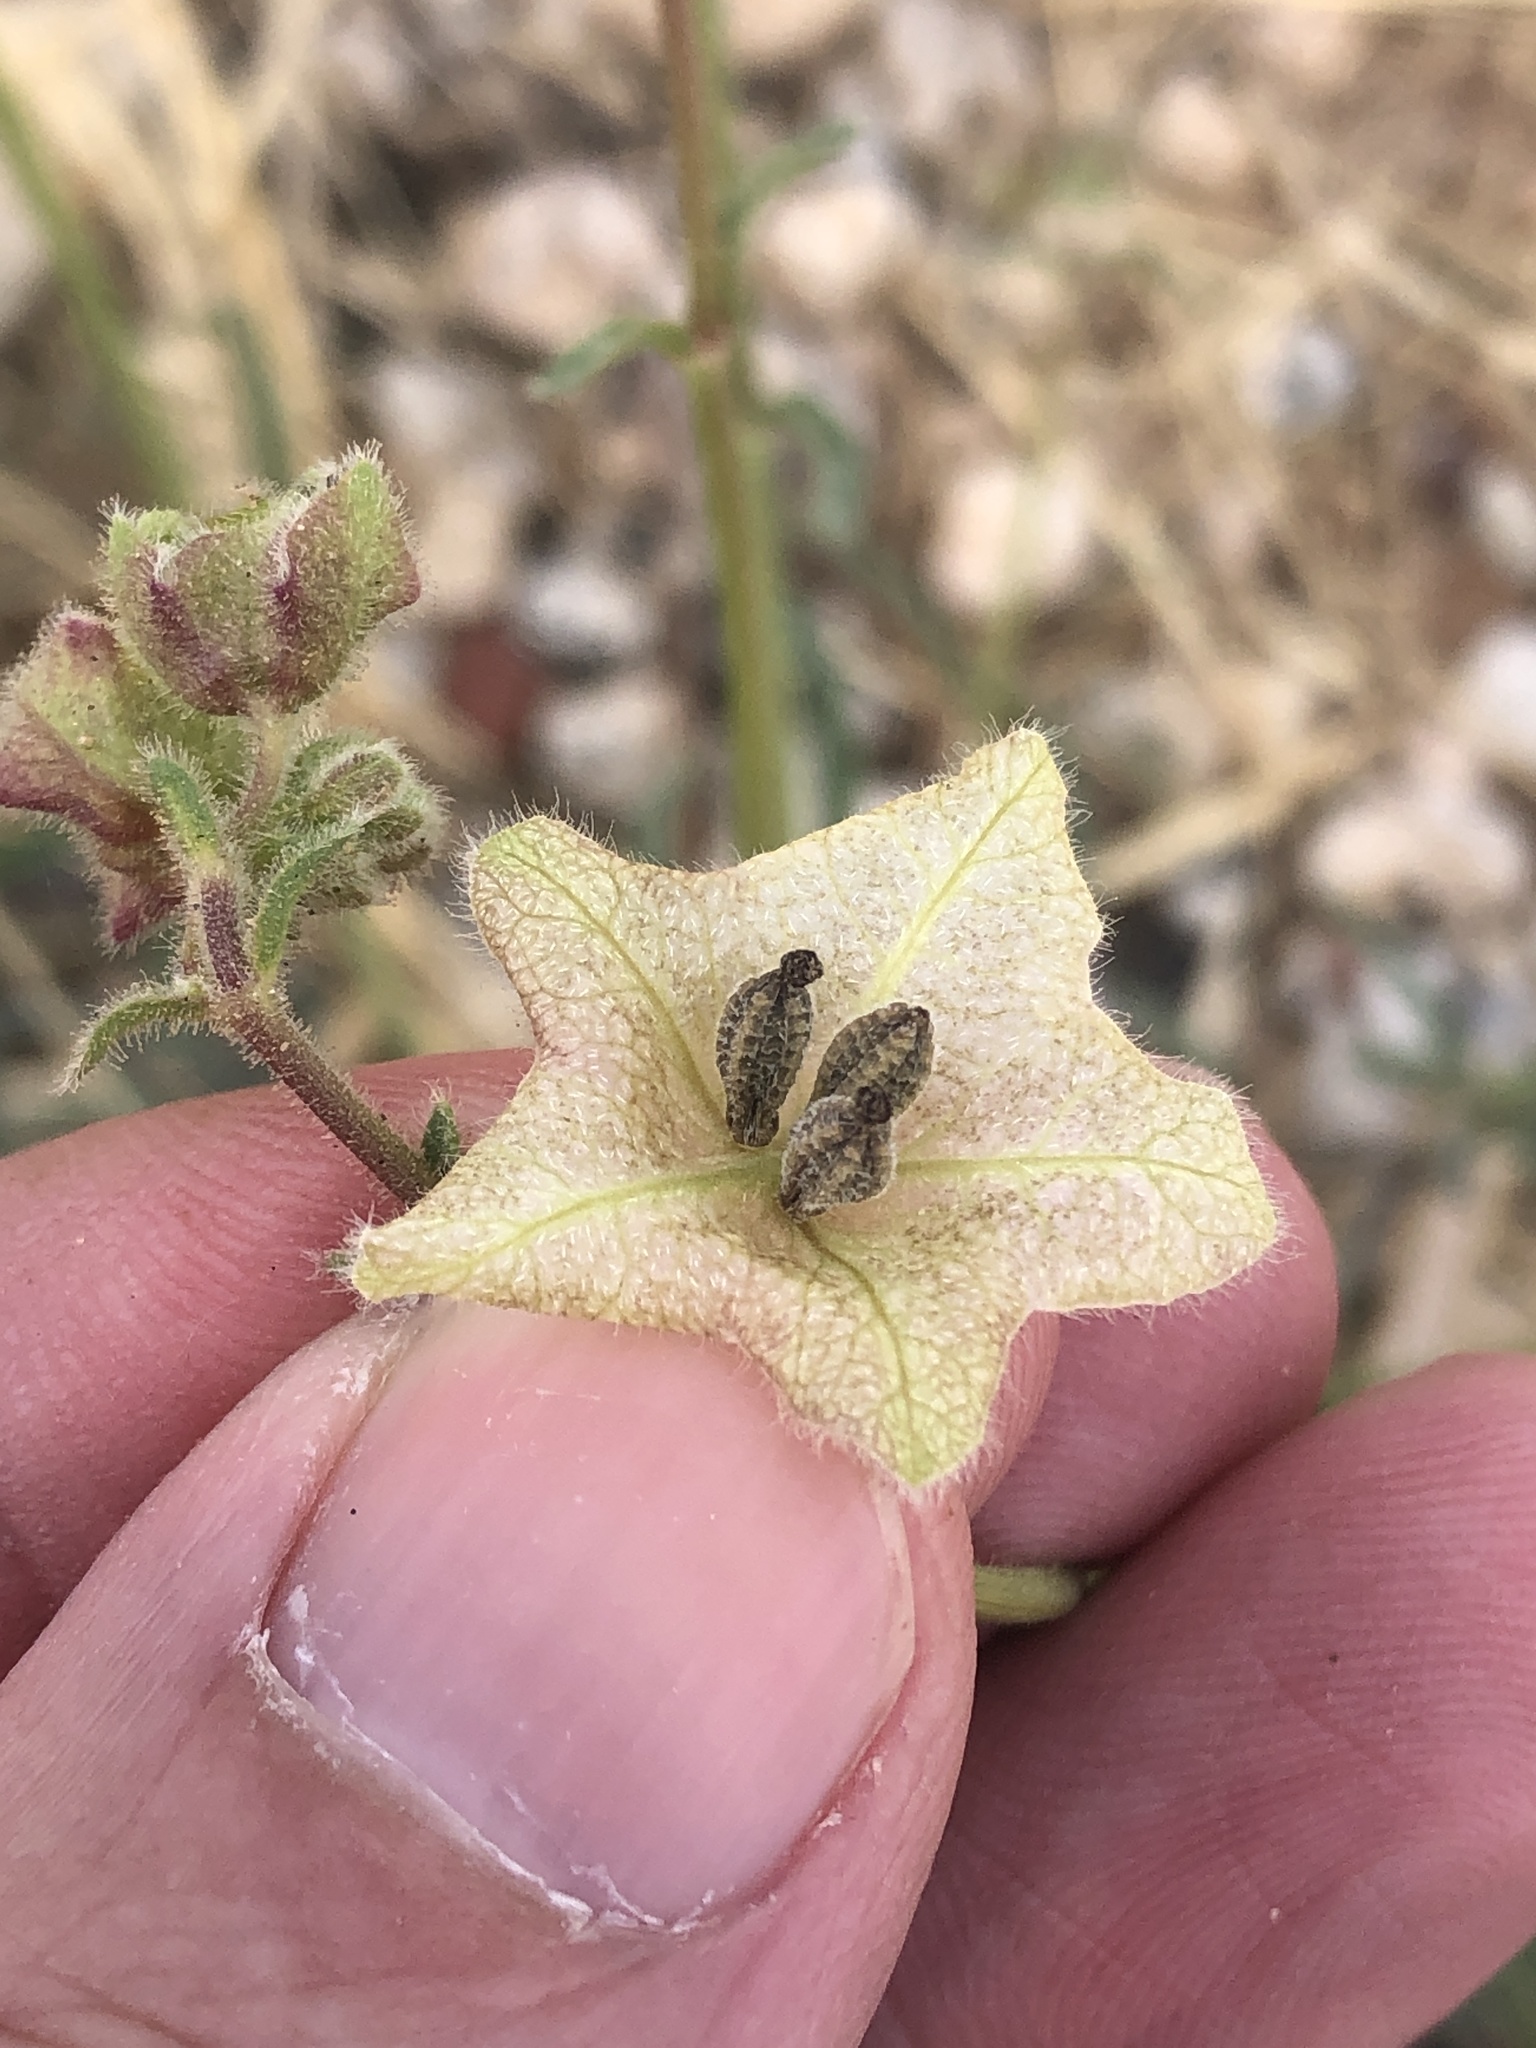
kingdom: Plantae
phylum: Tracheophyta
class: Magnoliopsida
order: Caryophyllales
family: Nyctaginaceae
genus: Mirabilis
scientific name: Mirabilis linearis
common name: Linear-leaved four-o'clock
